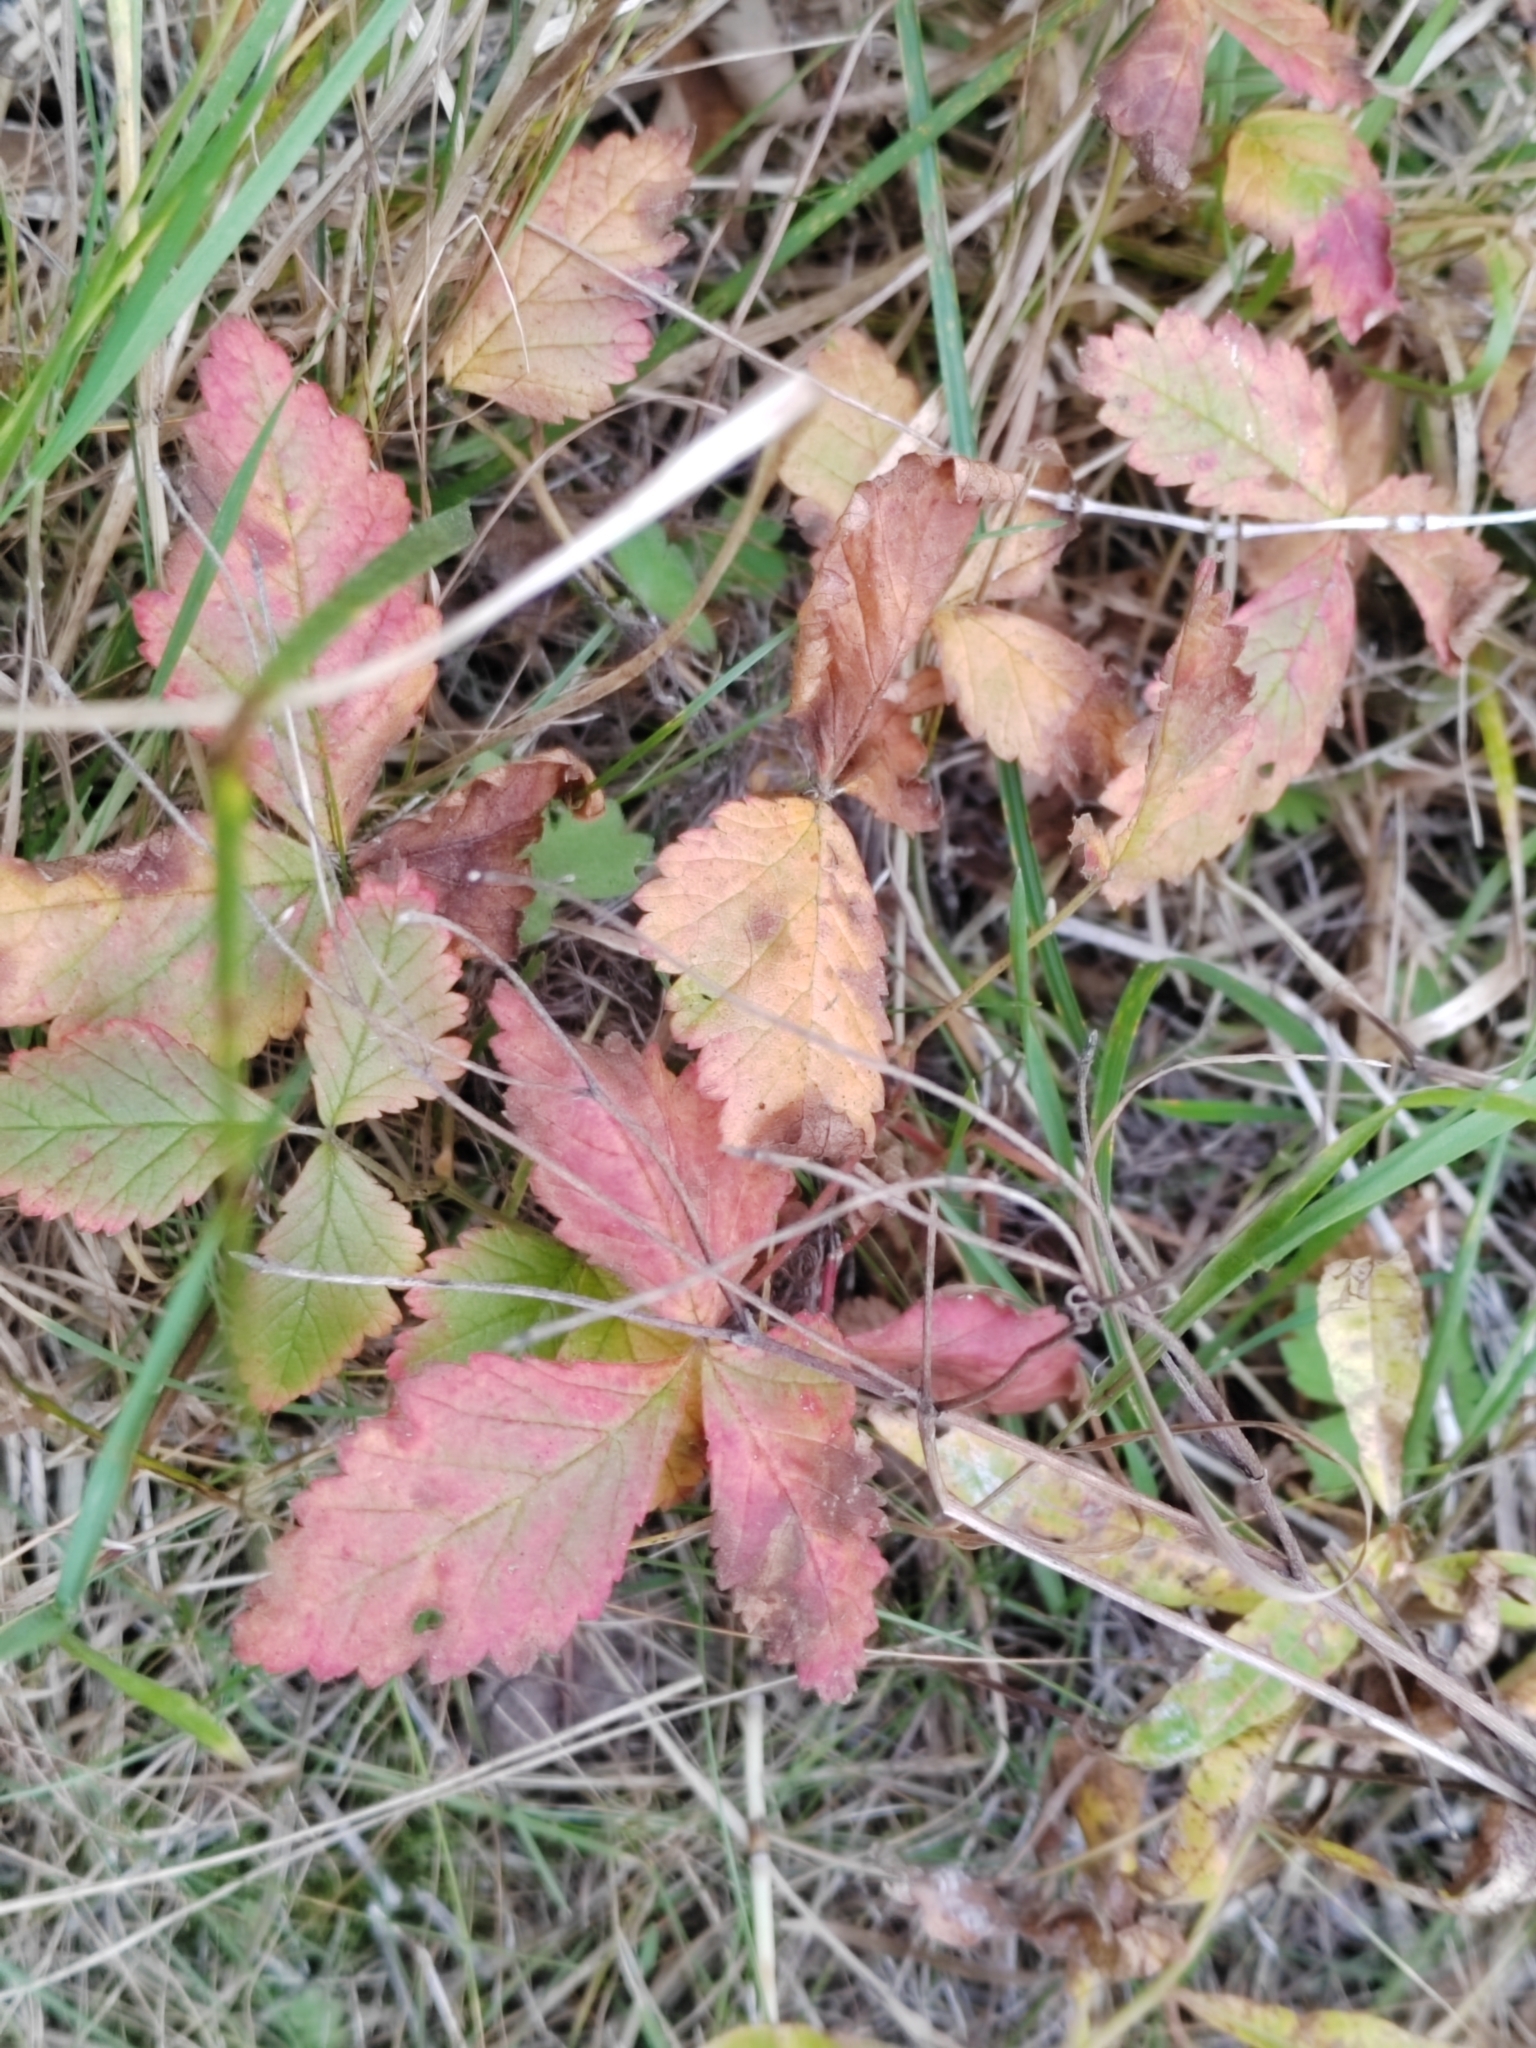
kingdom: Plantae
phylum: Tracheophyta
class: Magnoliopsida
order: Rosales
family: Rosaceae
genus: Rubus
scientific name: Rubus arcticus
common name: Arctic bramble
